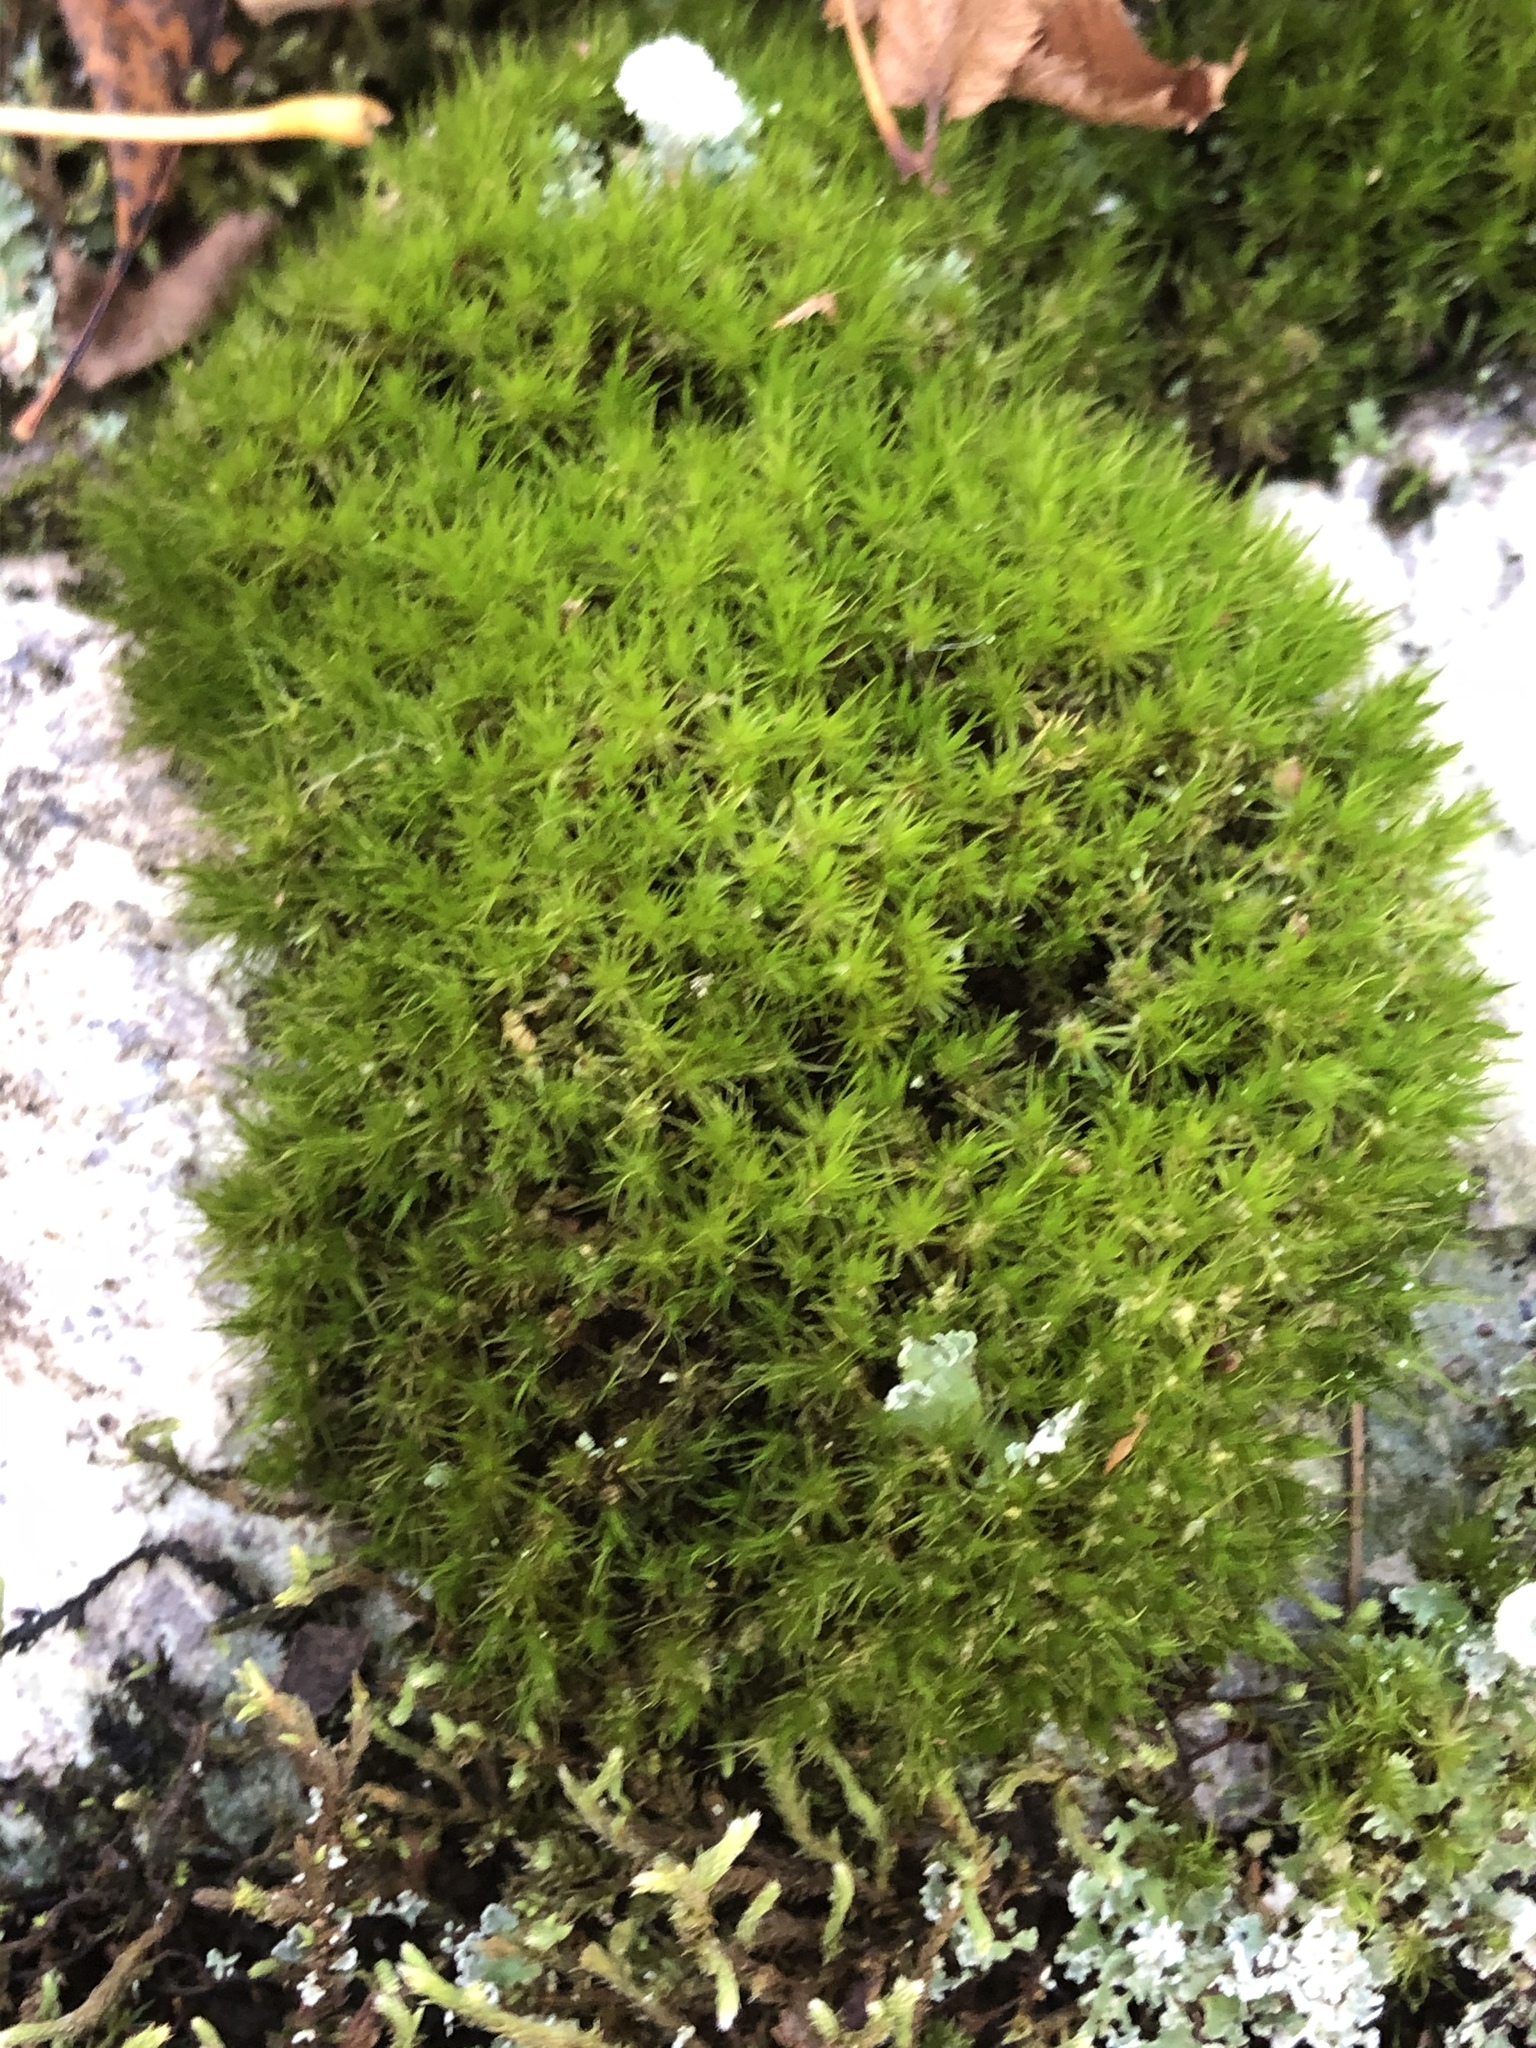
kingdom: Plantae
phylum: Bryophyta
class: Bryopsida
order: Dicranales
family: Dicranaceae
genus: Dicranum
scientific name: Dicranum viride
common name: Green broom moss
